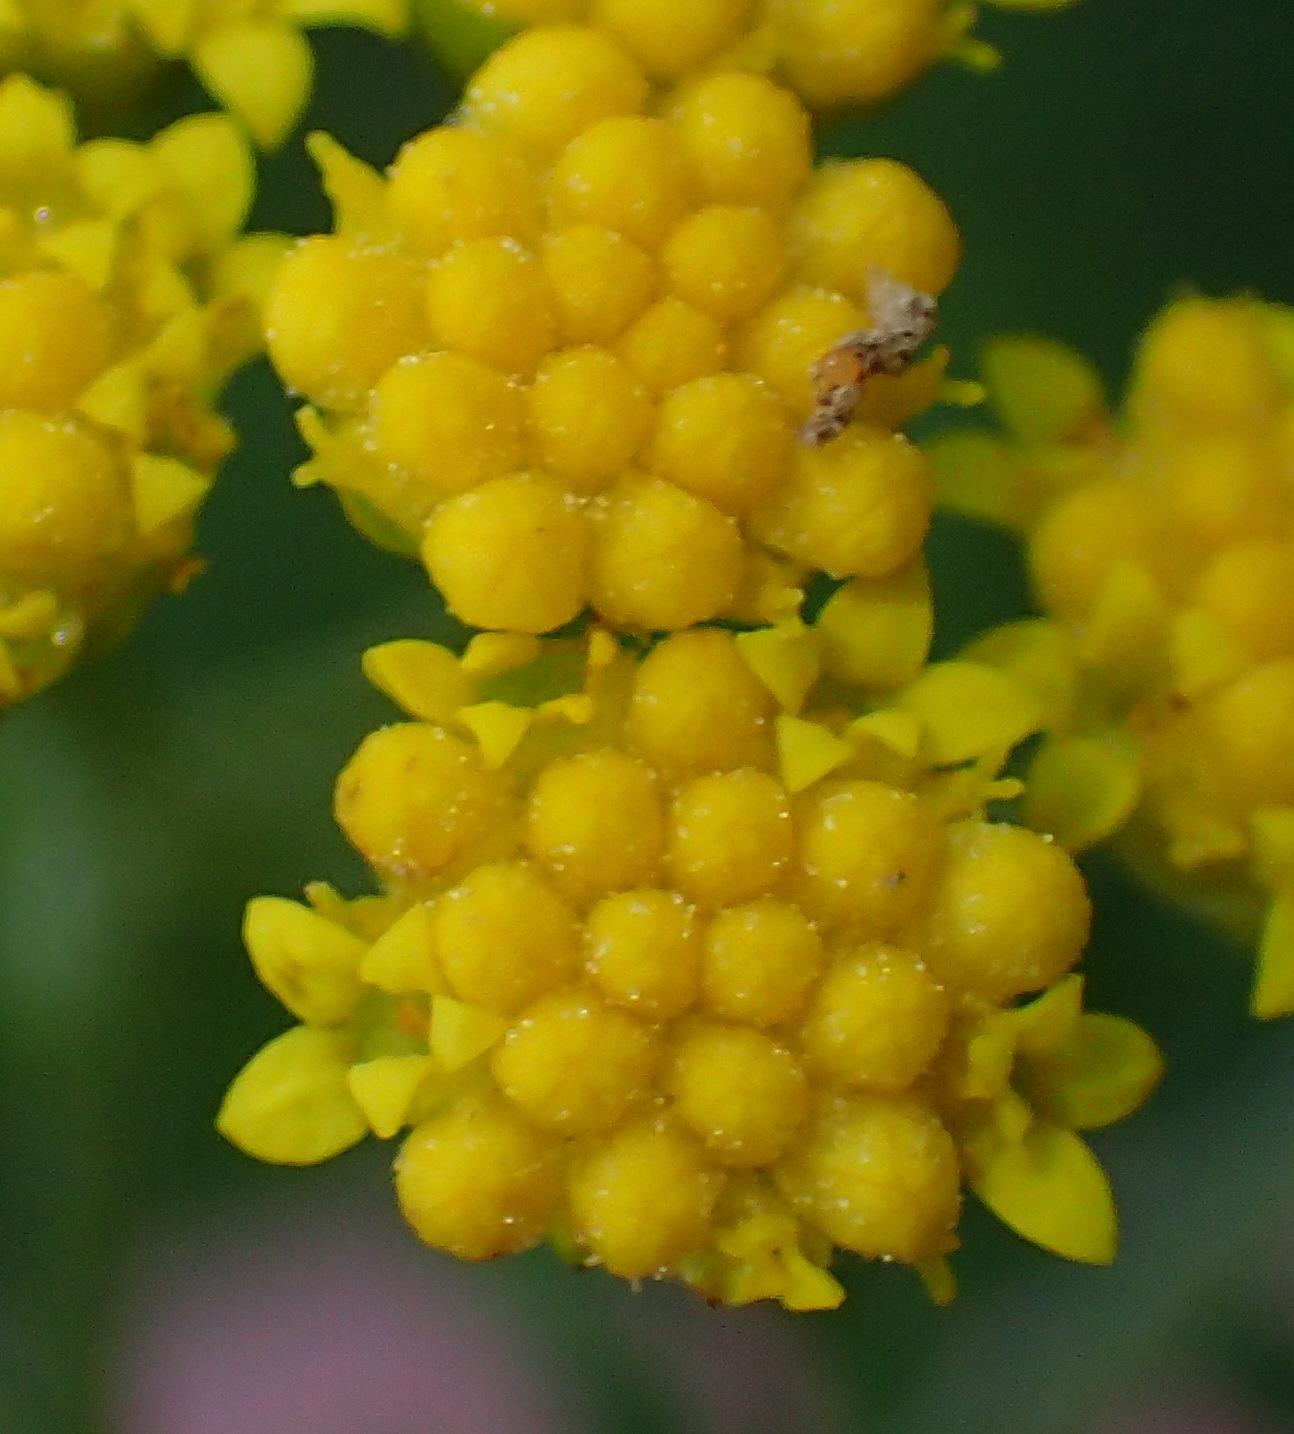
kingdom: Plantae
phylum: Tracheophyta
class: Magnoliopsida
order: Asterales
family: Asteraceae
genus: Hippia
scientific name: Hippia frutescens
